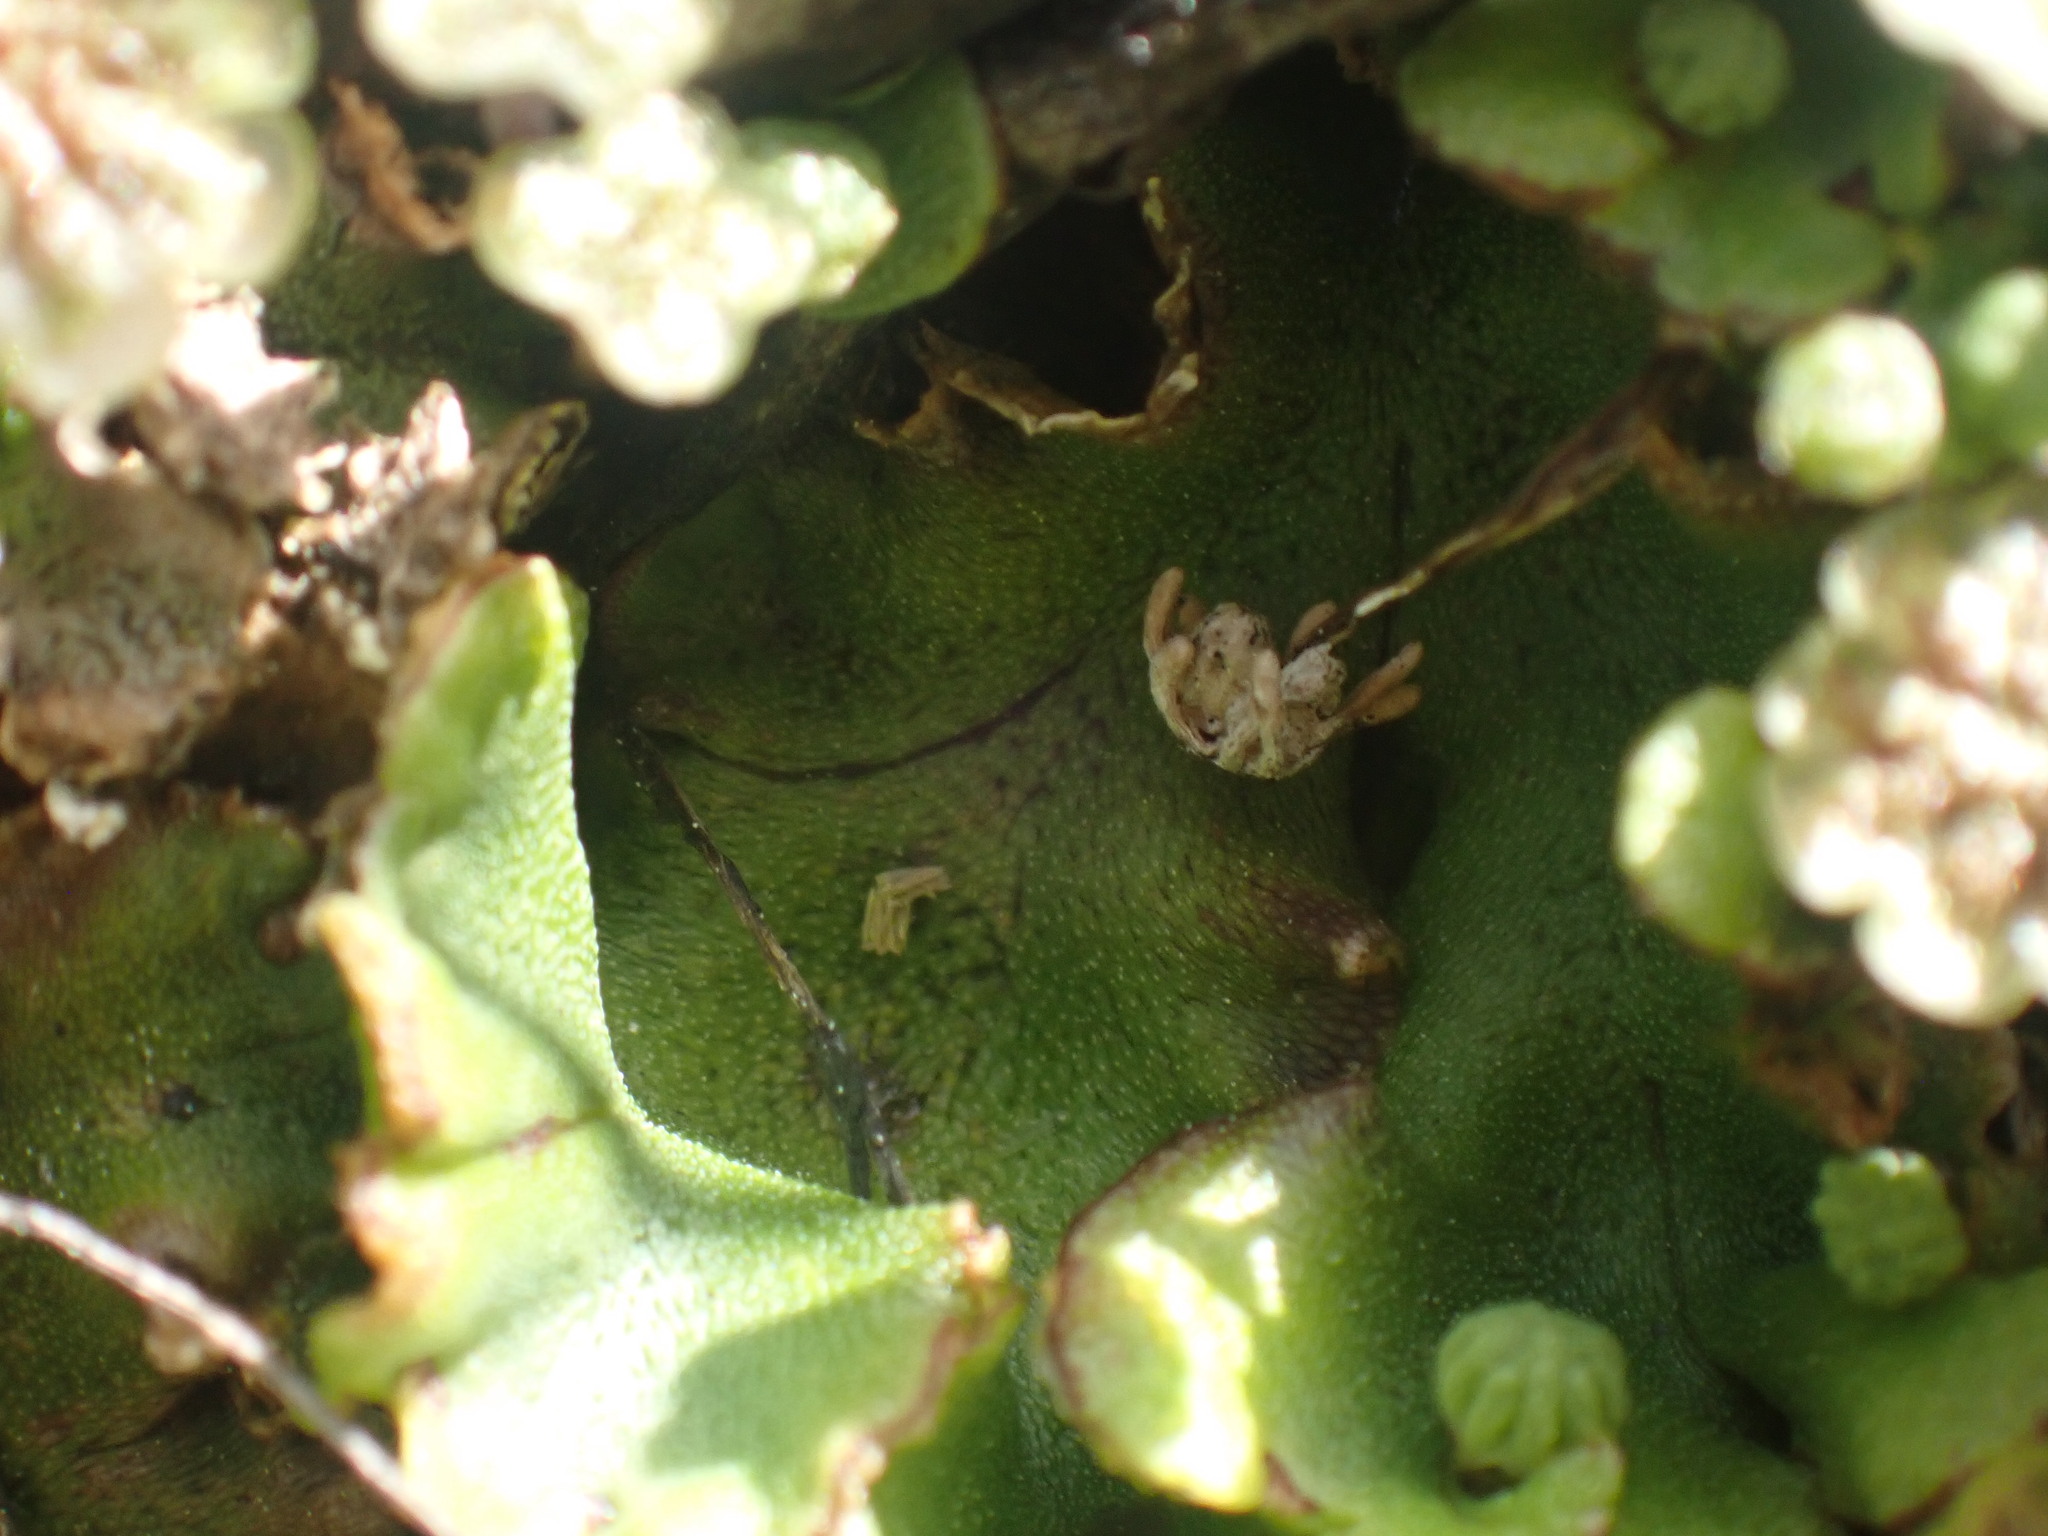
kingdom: Plantae
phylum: Marchantiophyta
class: Marchantiopsida
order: Marchantiales
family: Marchantiaceae
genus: Marchantia
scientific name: Marchantia polymorpha
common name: Common liverwort
